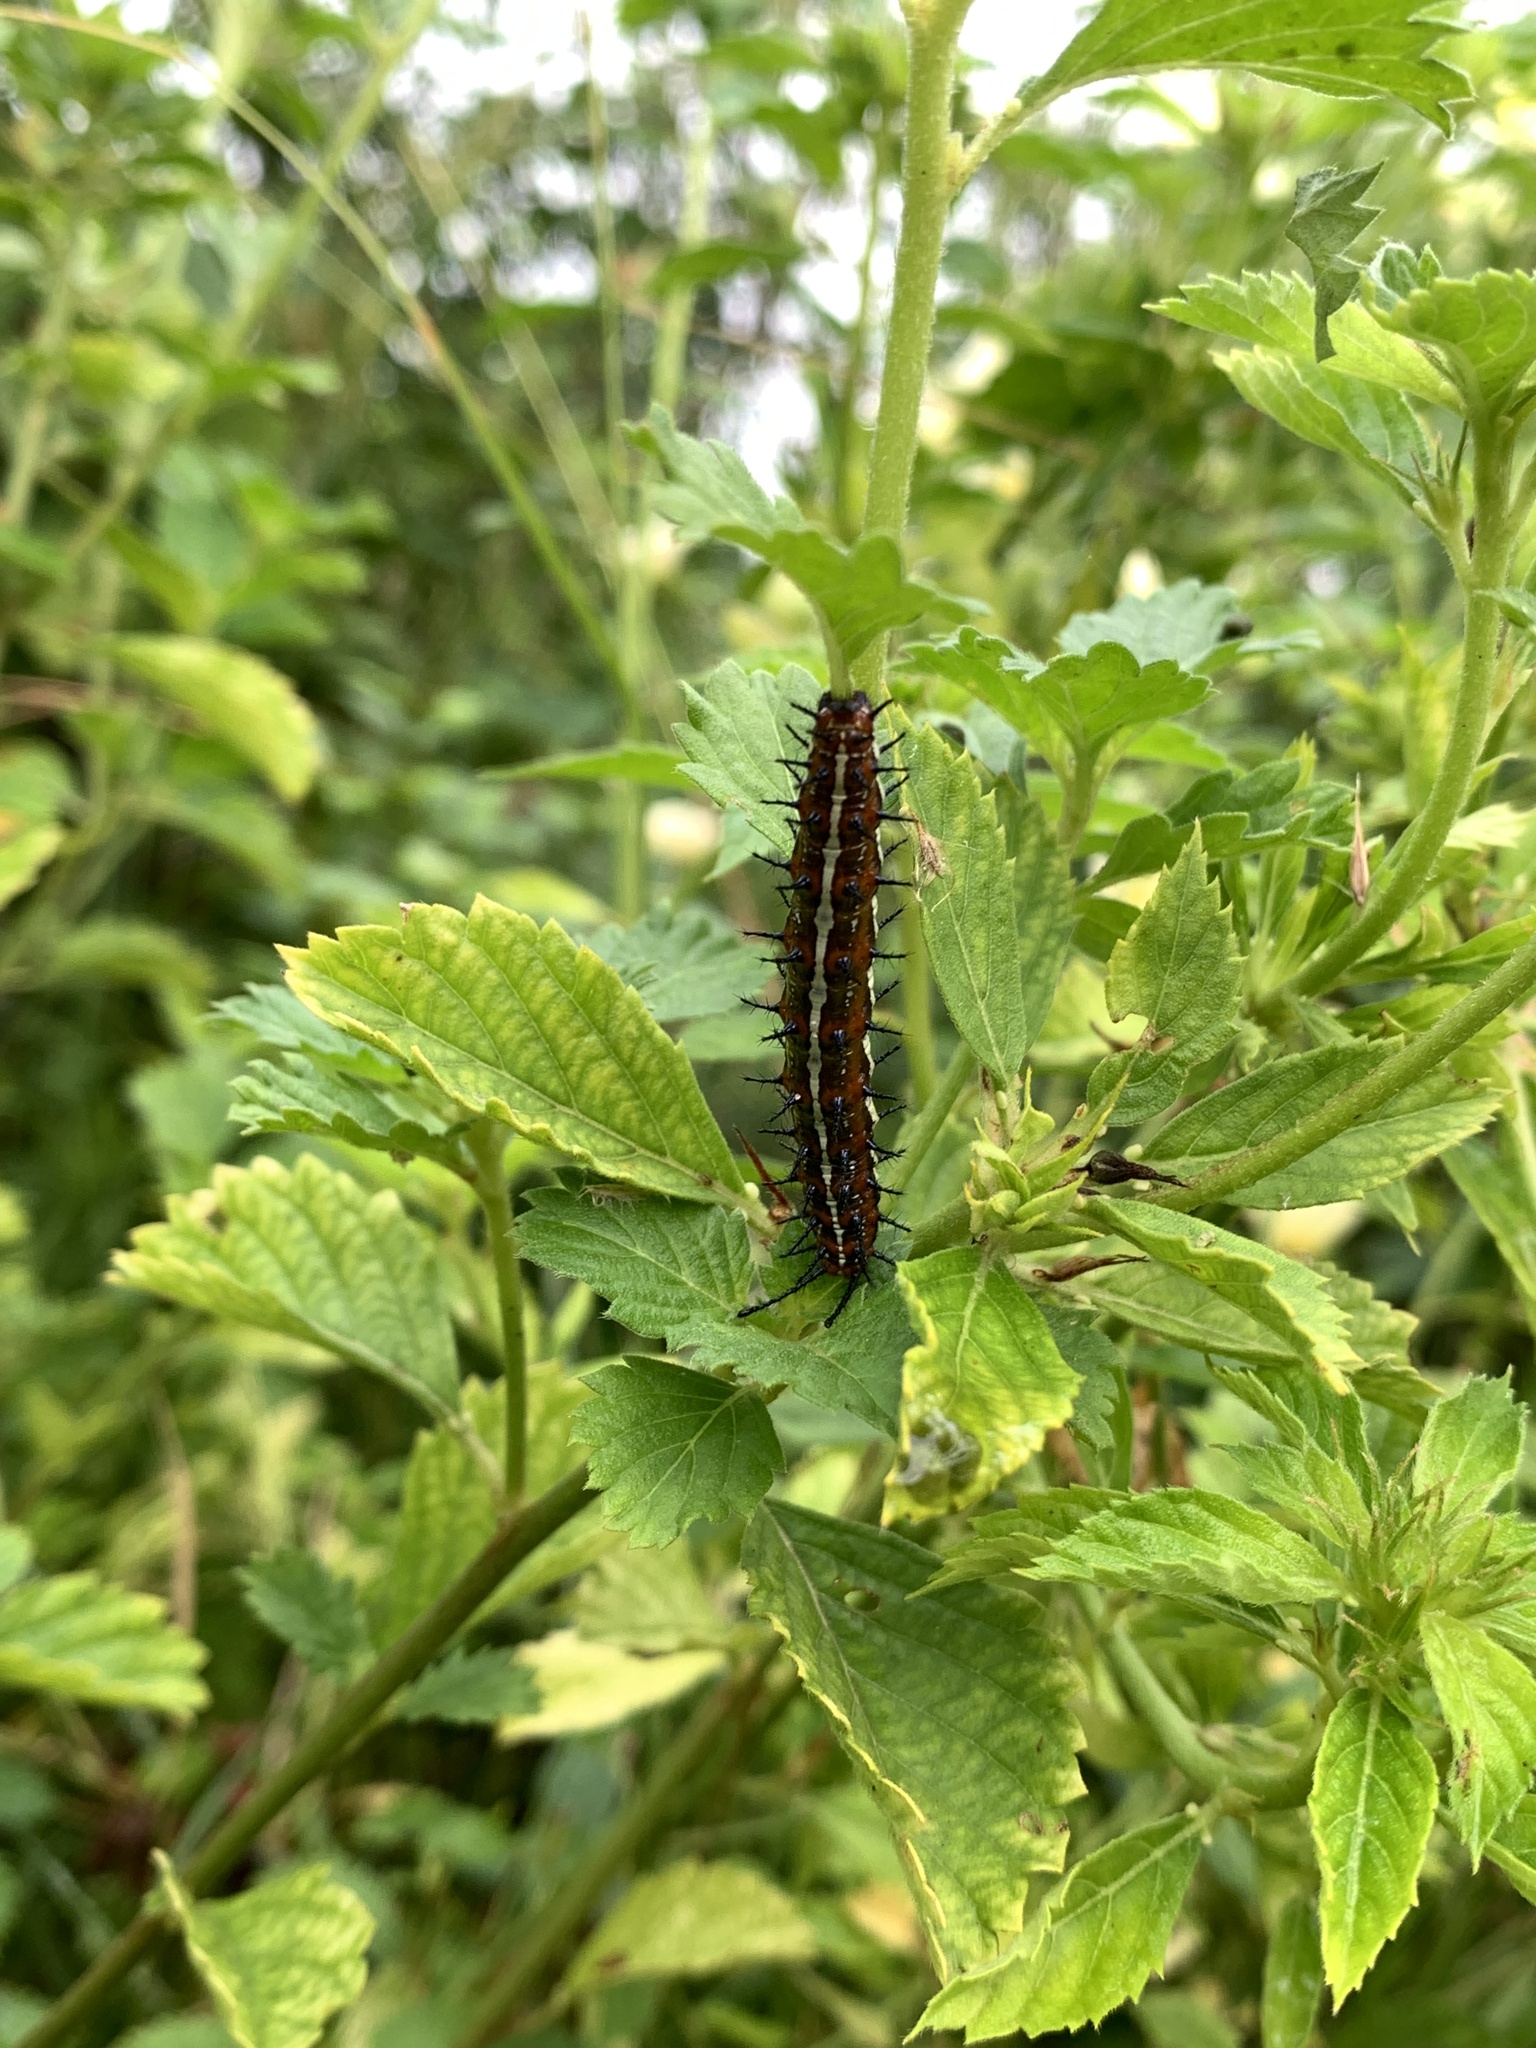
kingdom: Animalia
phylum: Arthropoda
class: Insecta
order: Lepidoptera
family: Nymphalidae
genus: Euptoieta
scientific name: Euptoieta hegesia
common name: Mexican fritillary
